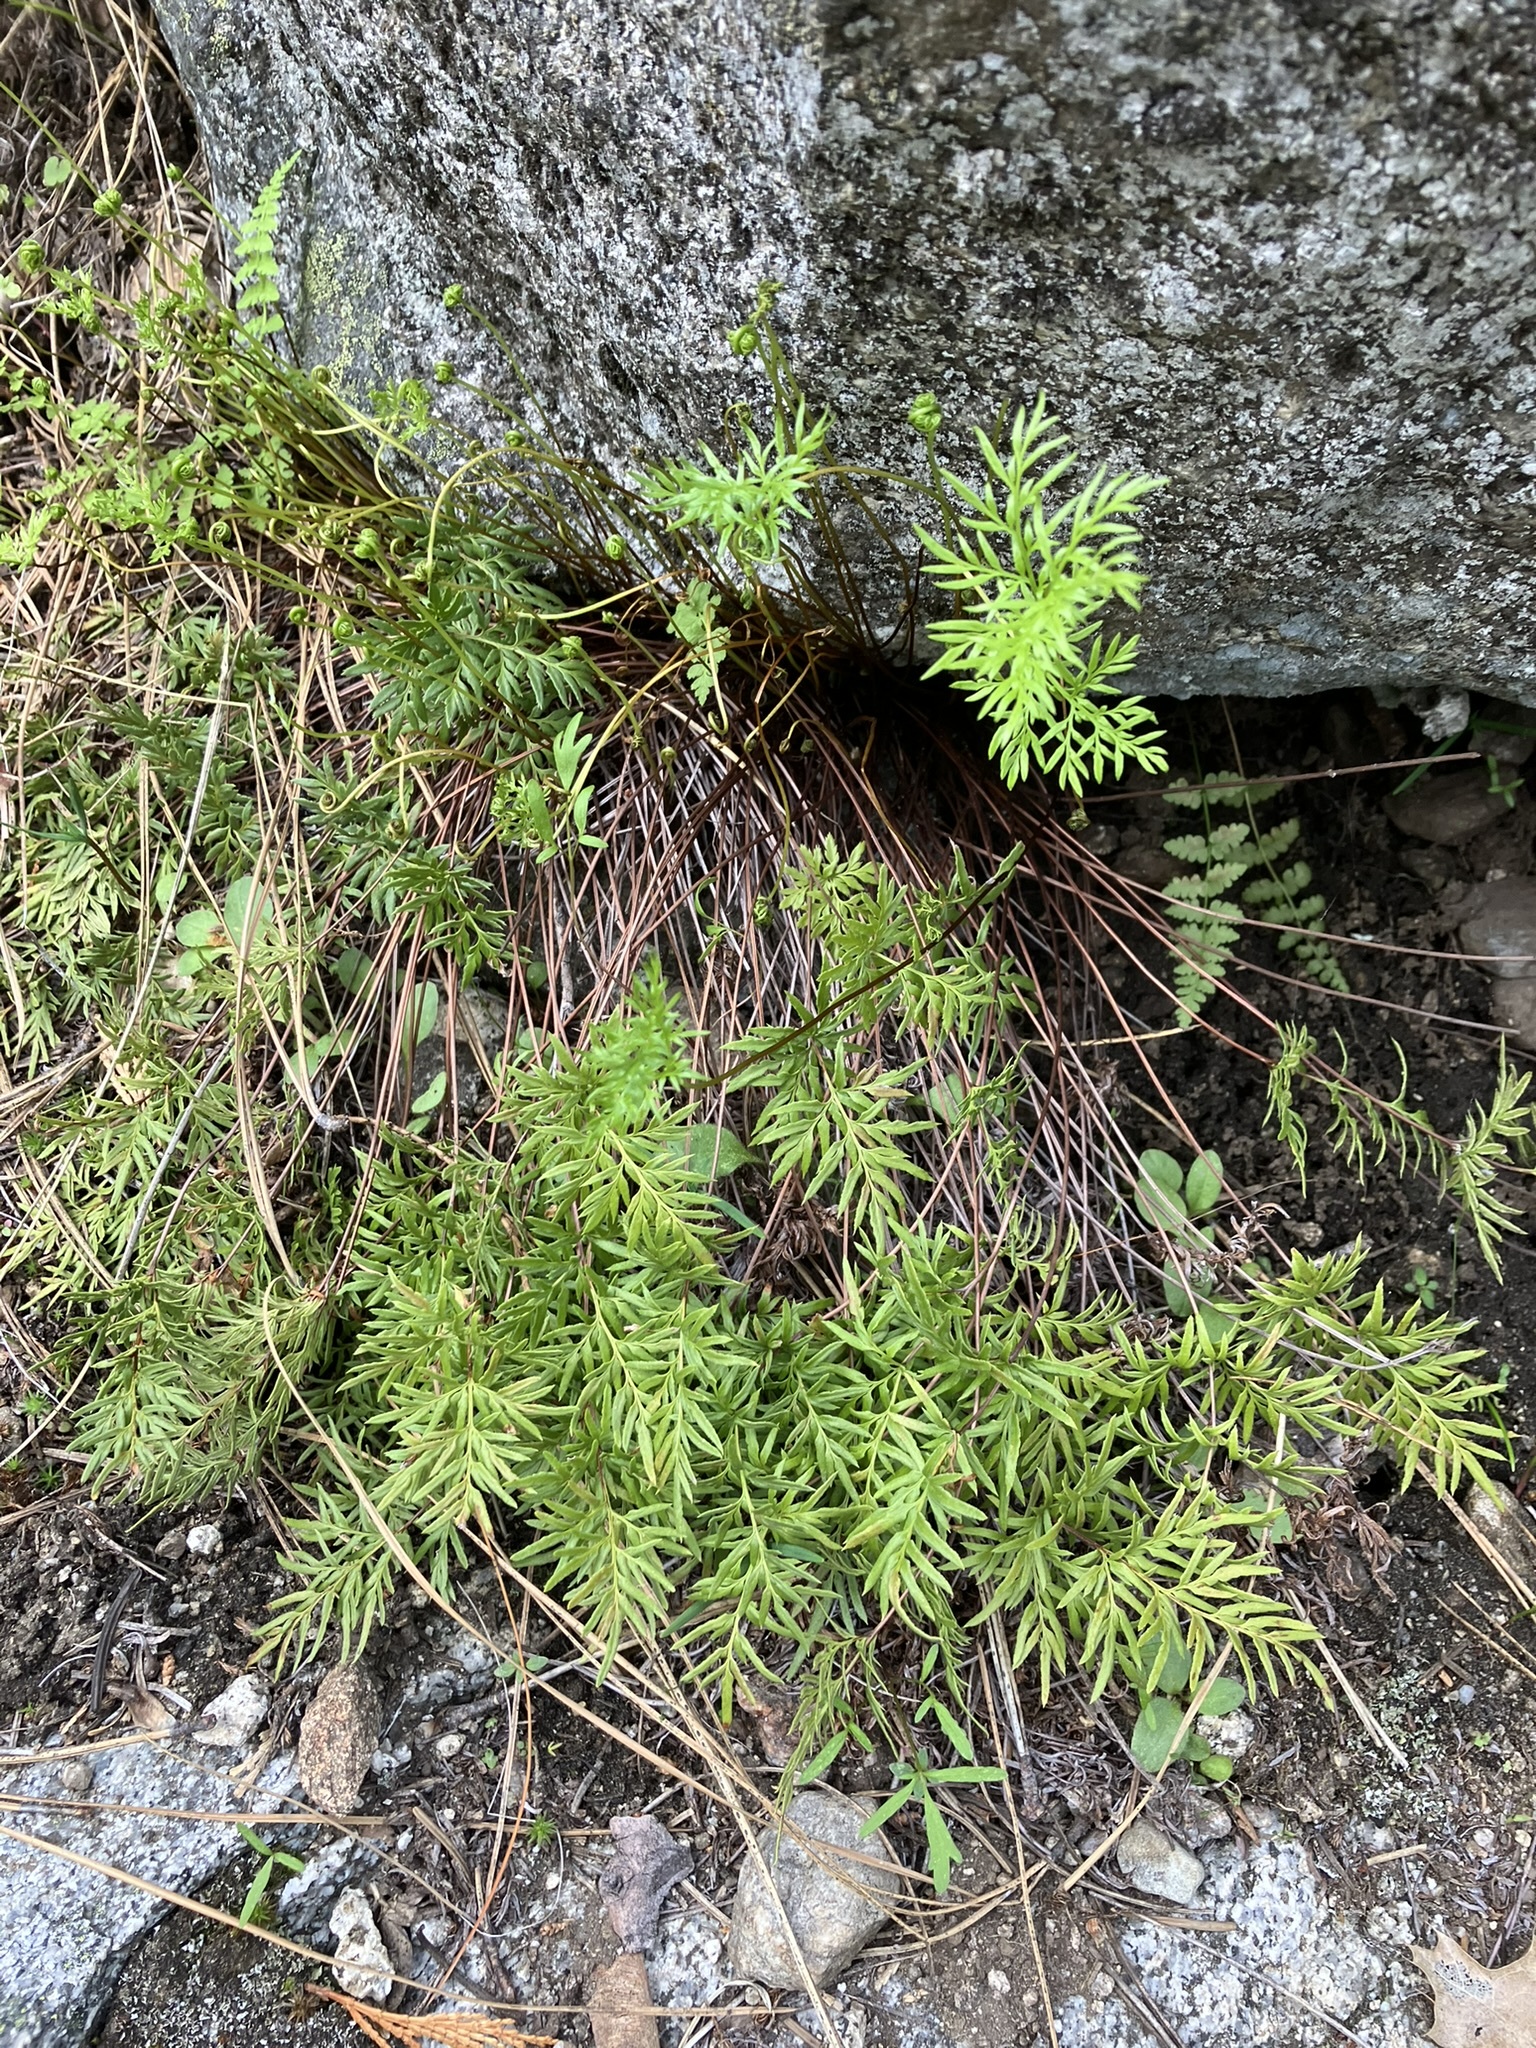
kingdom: Plantae
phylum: Tracheophyta
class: Polypodiopsida
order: Polypodiales
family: Pteridaceae
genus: Aspidotis
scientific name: Aspidotis densa
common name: Indian's dream
